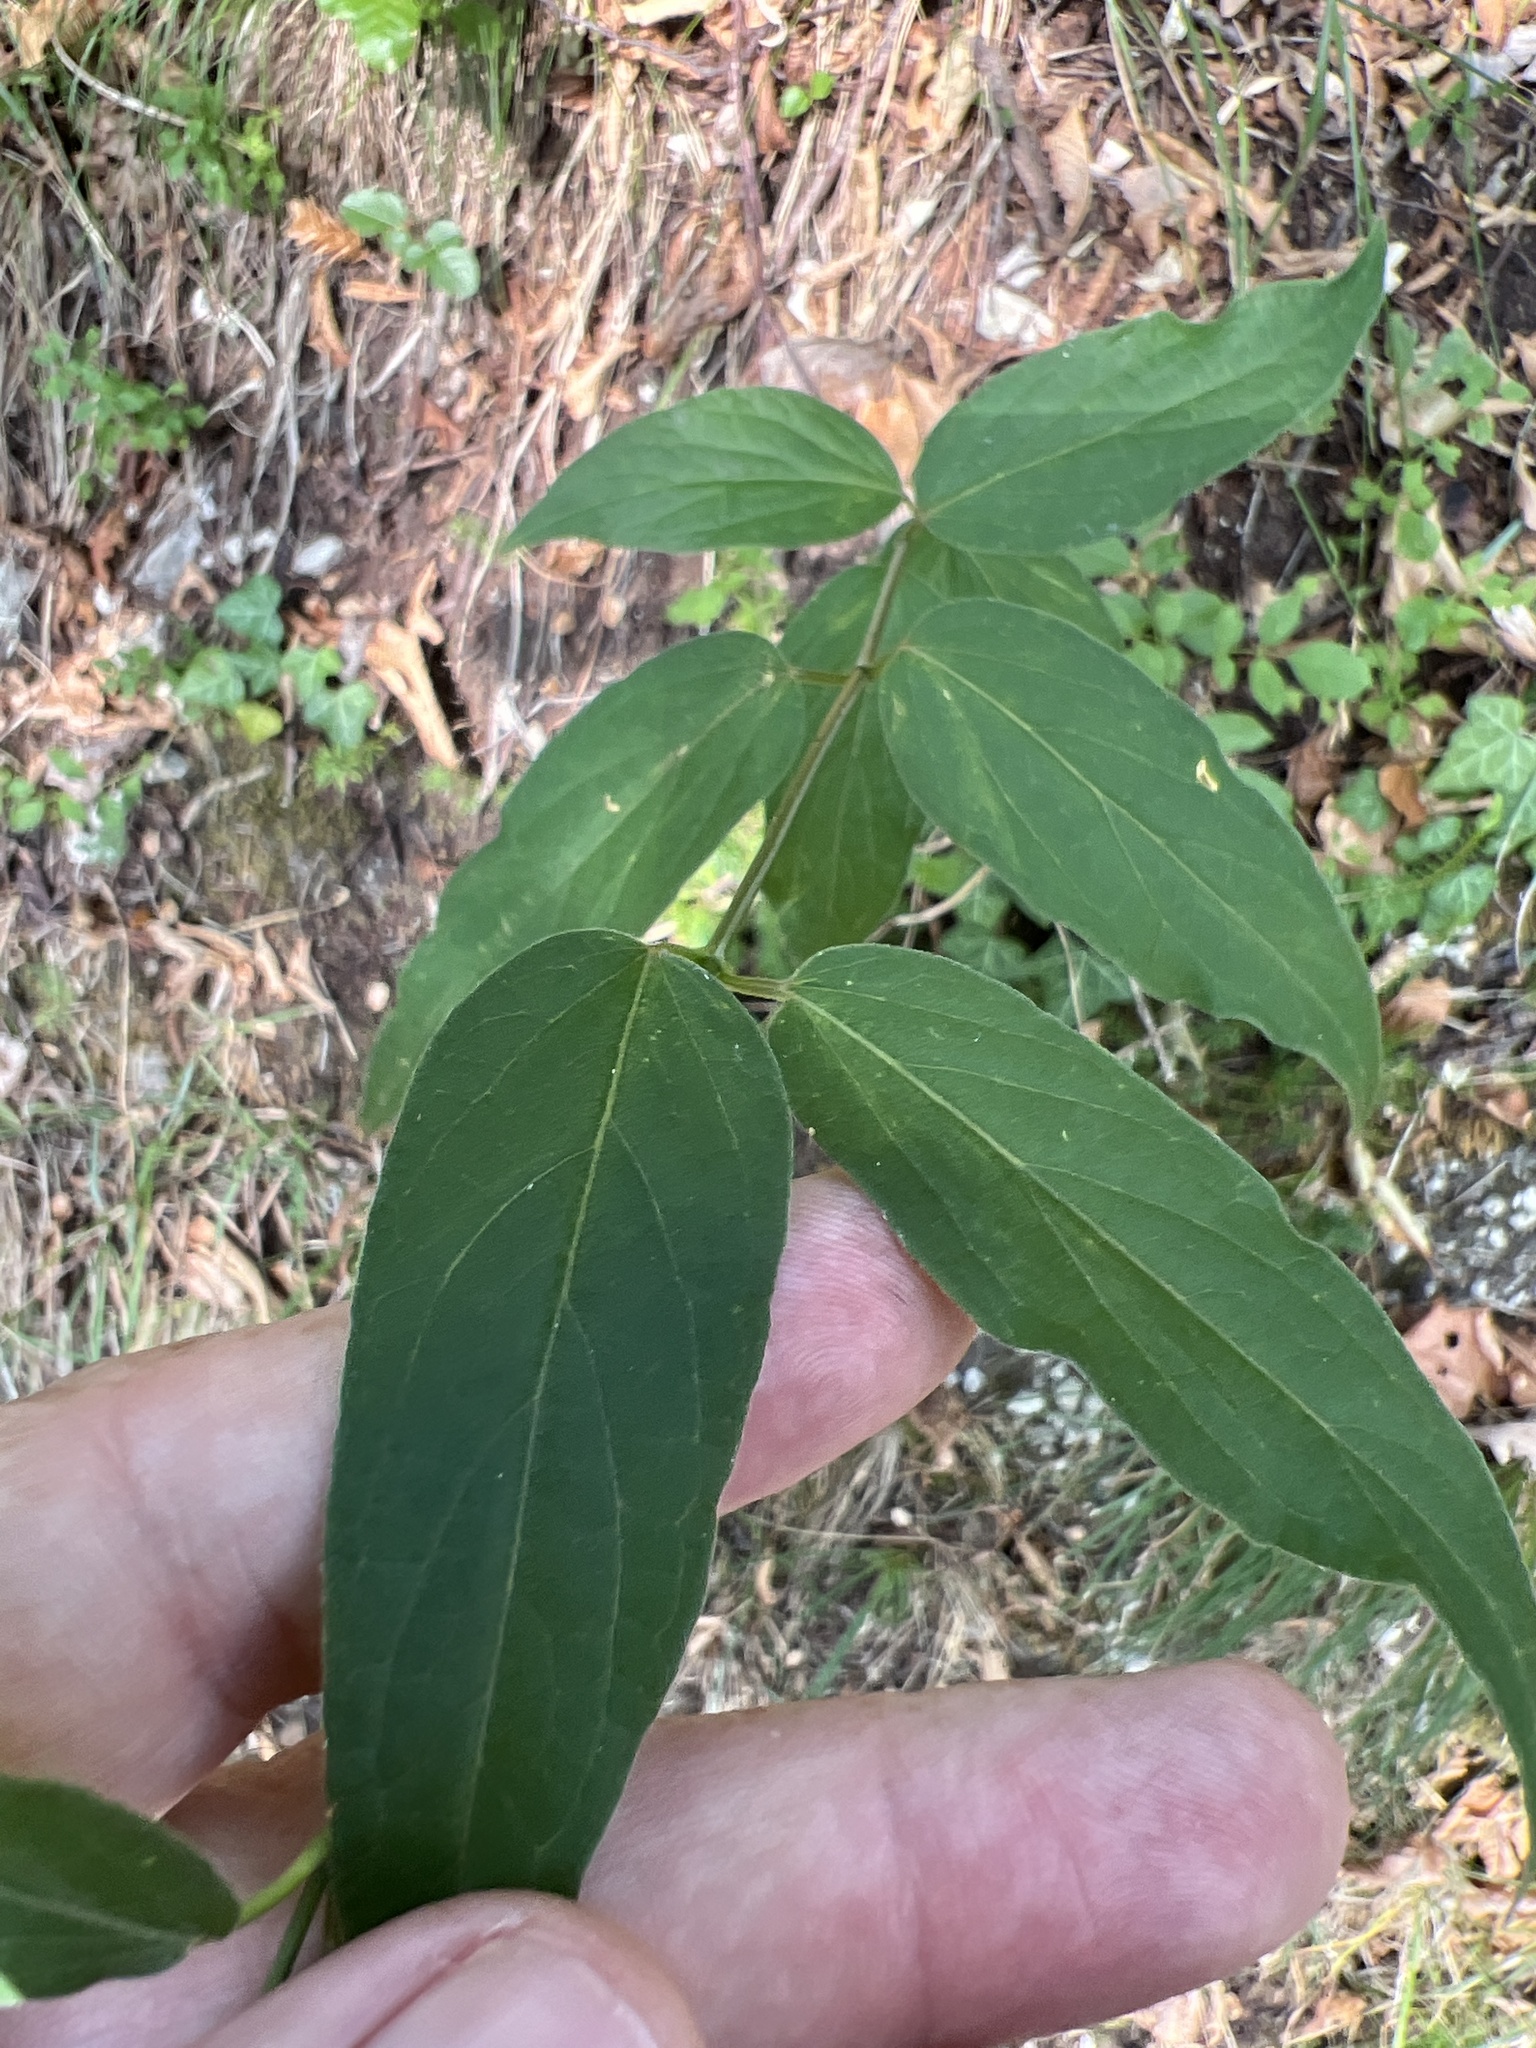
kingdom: Plantae
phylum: Tracheophyta
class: Magnoliopsida
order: Gentianales
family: Apocynaceae
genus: Vincetoxicum
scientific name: Vincetoxicum hirundinaria
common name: White swallowwort
